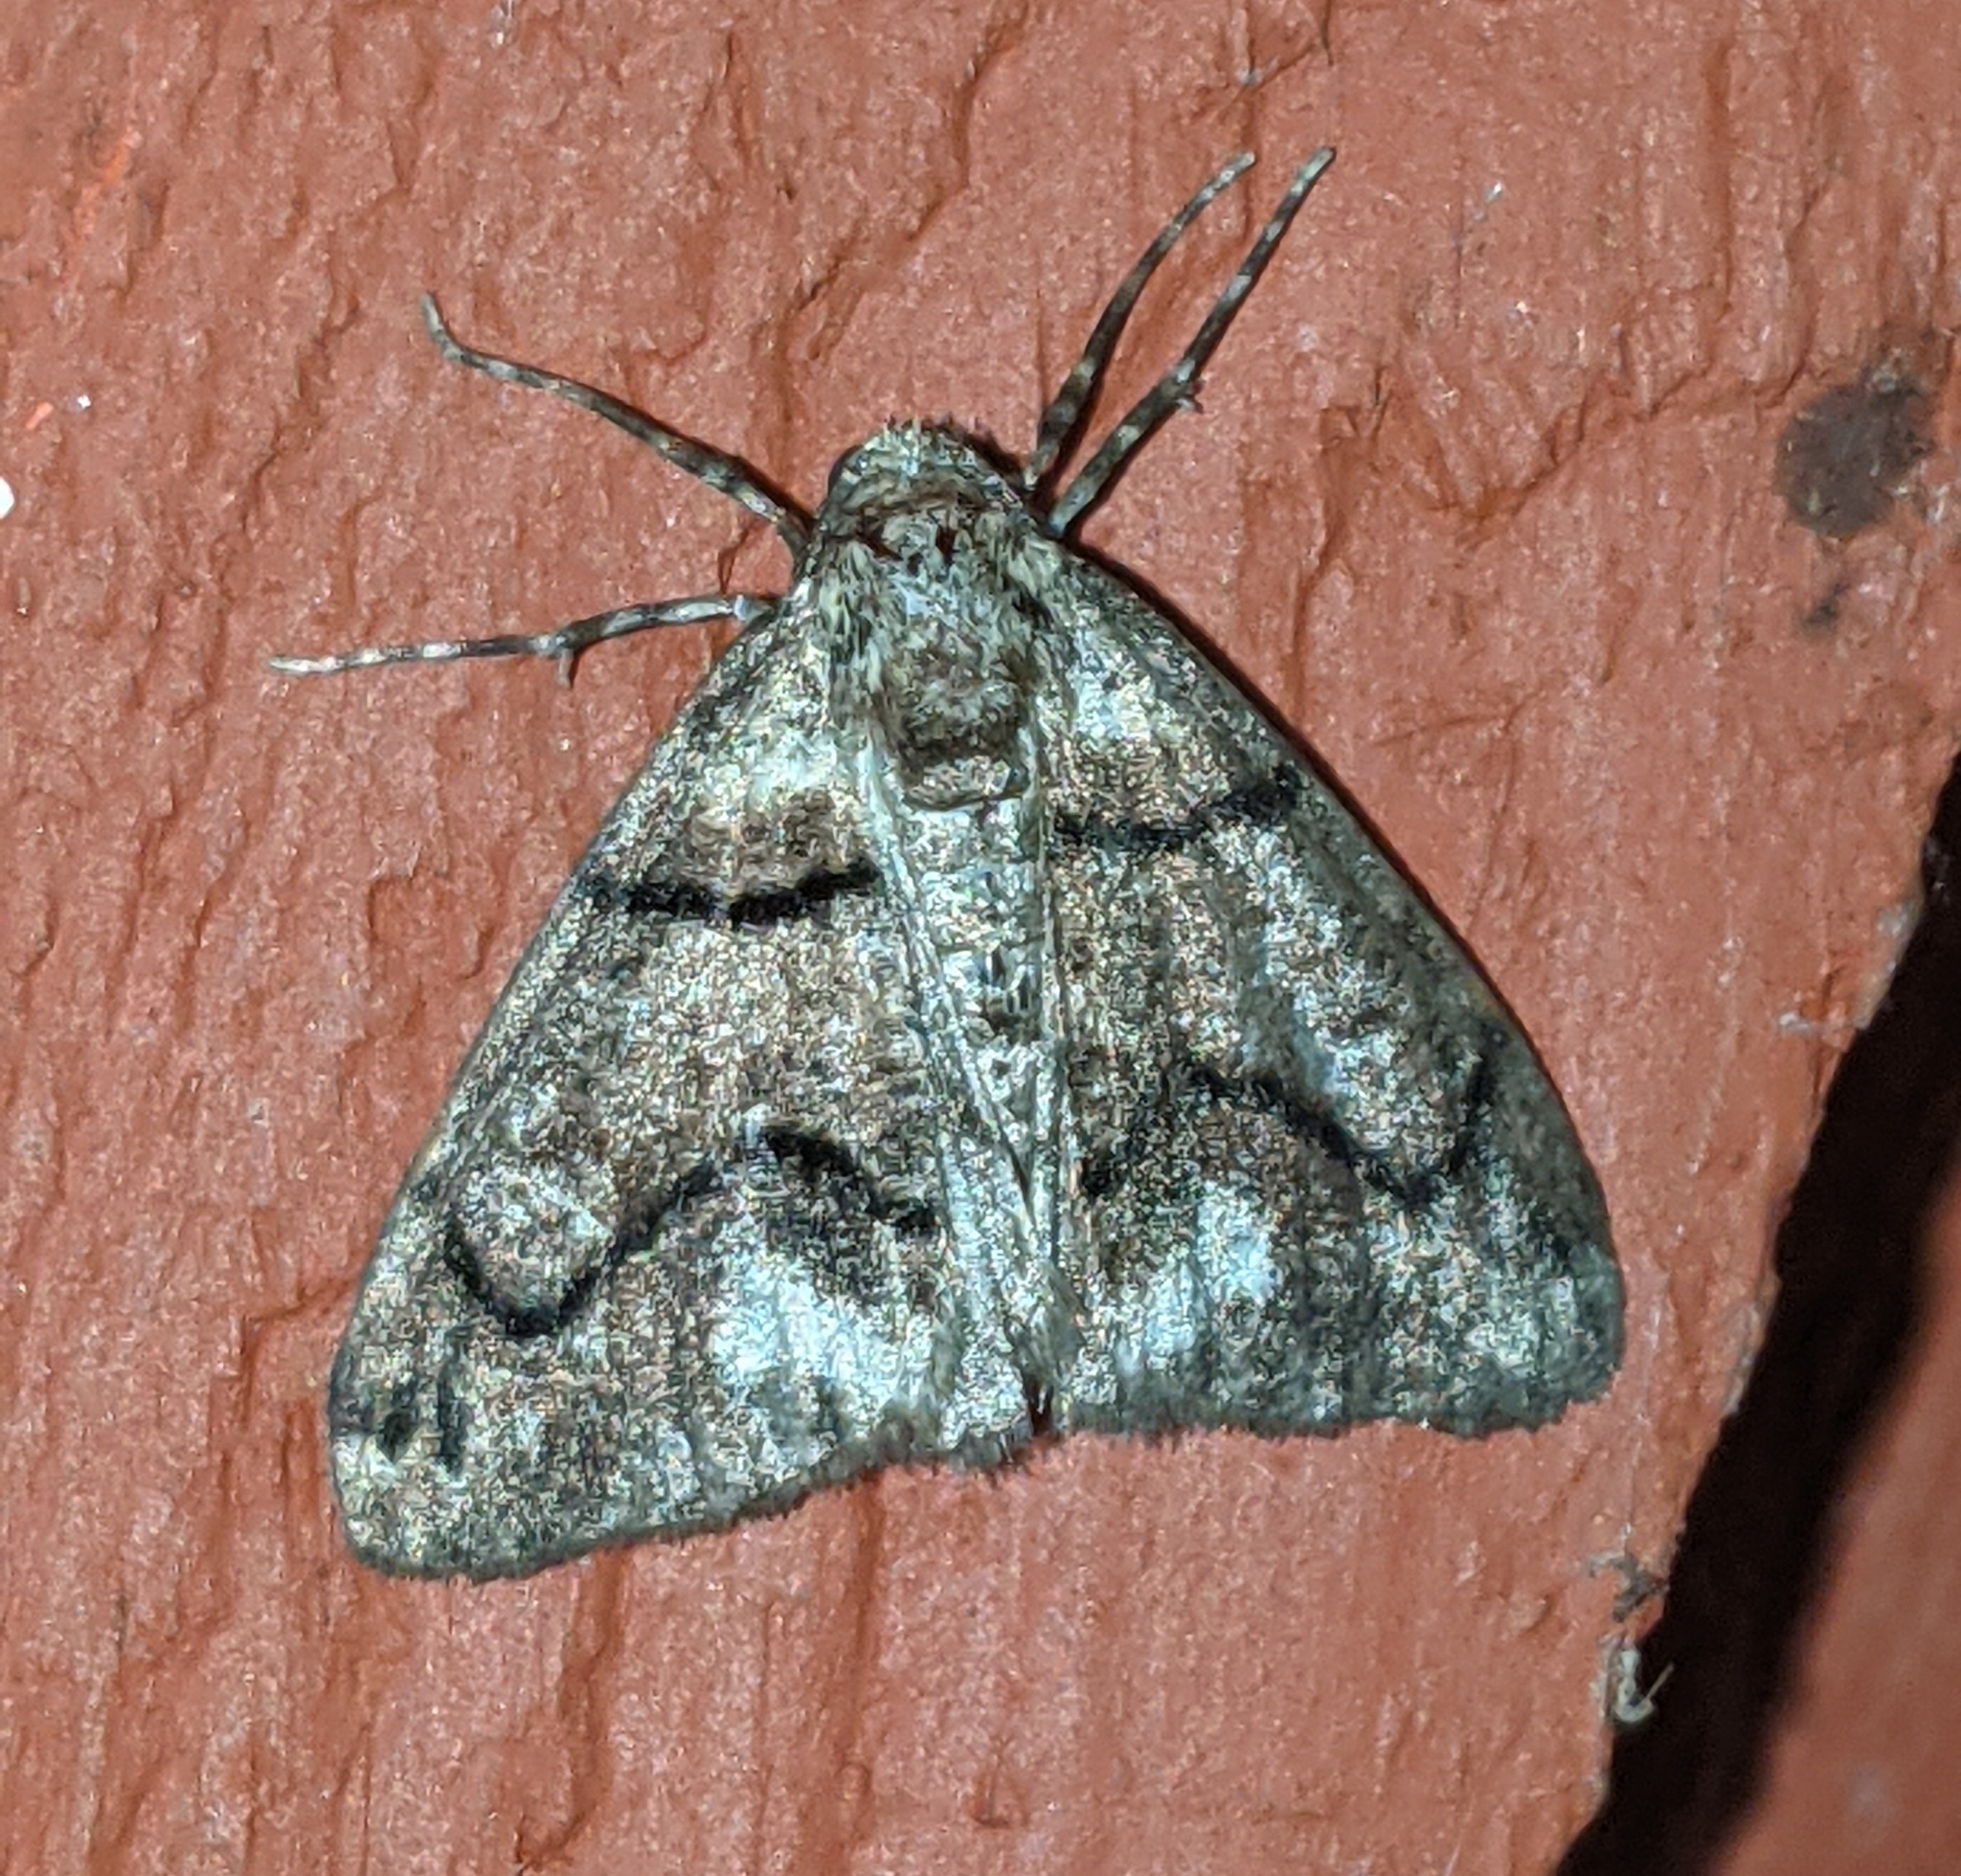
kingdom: Animalia
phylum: Arthropoda
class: Insecta
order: Lepidoptera
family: Geometridae
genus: Gabriola
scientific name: Gabriola dyari
